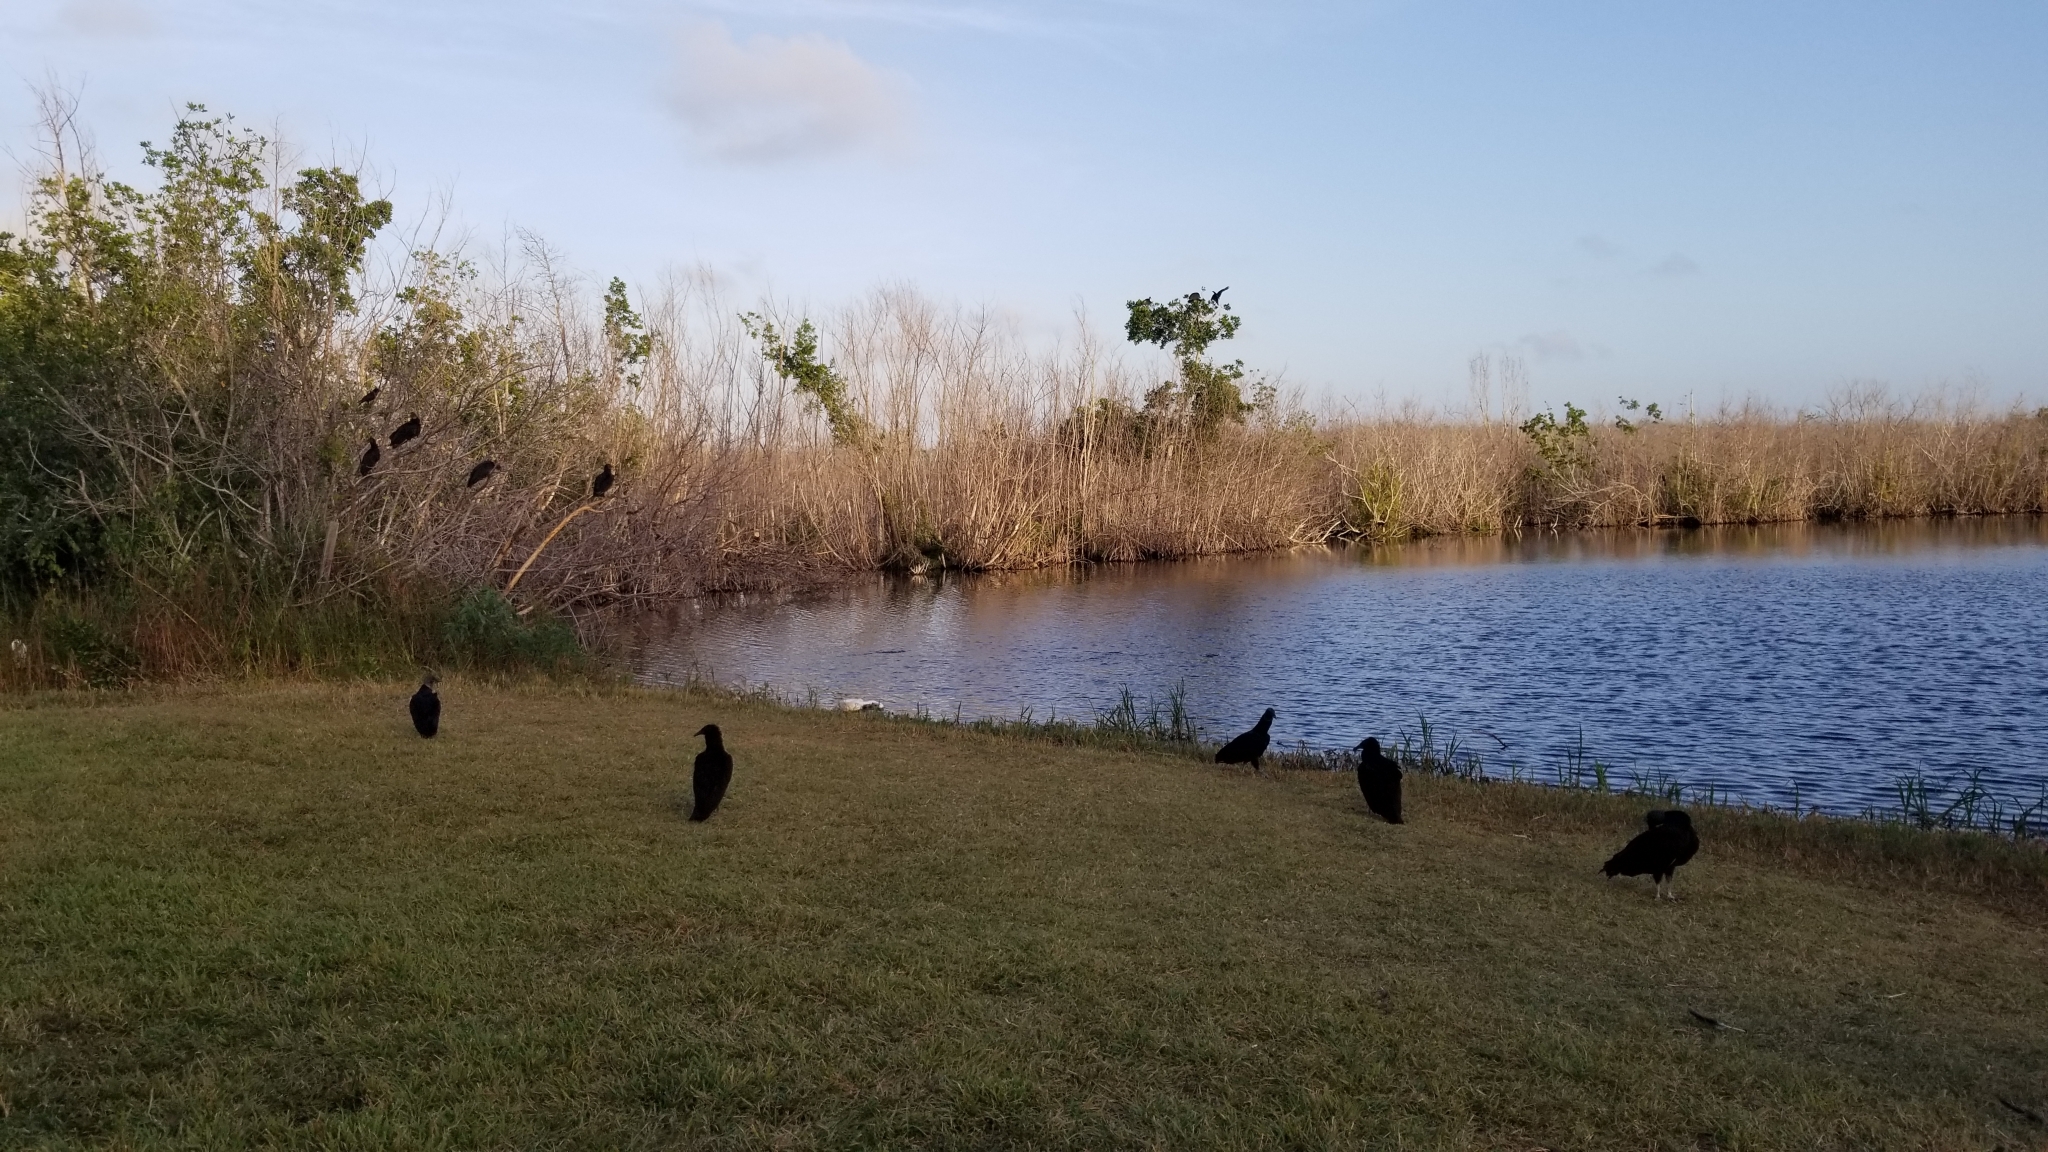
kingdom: Animalia
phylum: Chordata
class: Aves
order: Accipitriformes
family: Cathartidae
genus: Coragyps
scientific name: Coragyps atratus
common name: Black vulture
